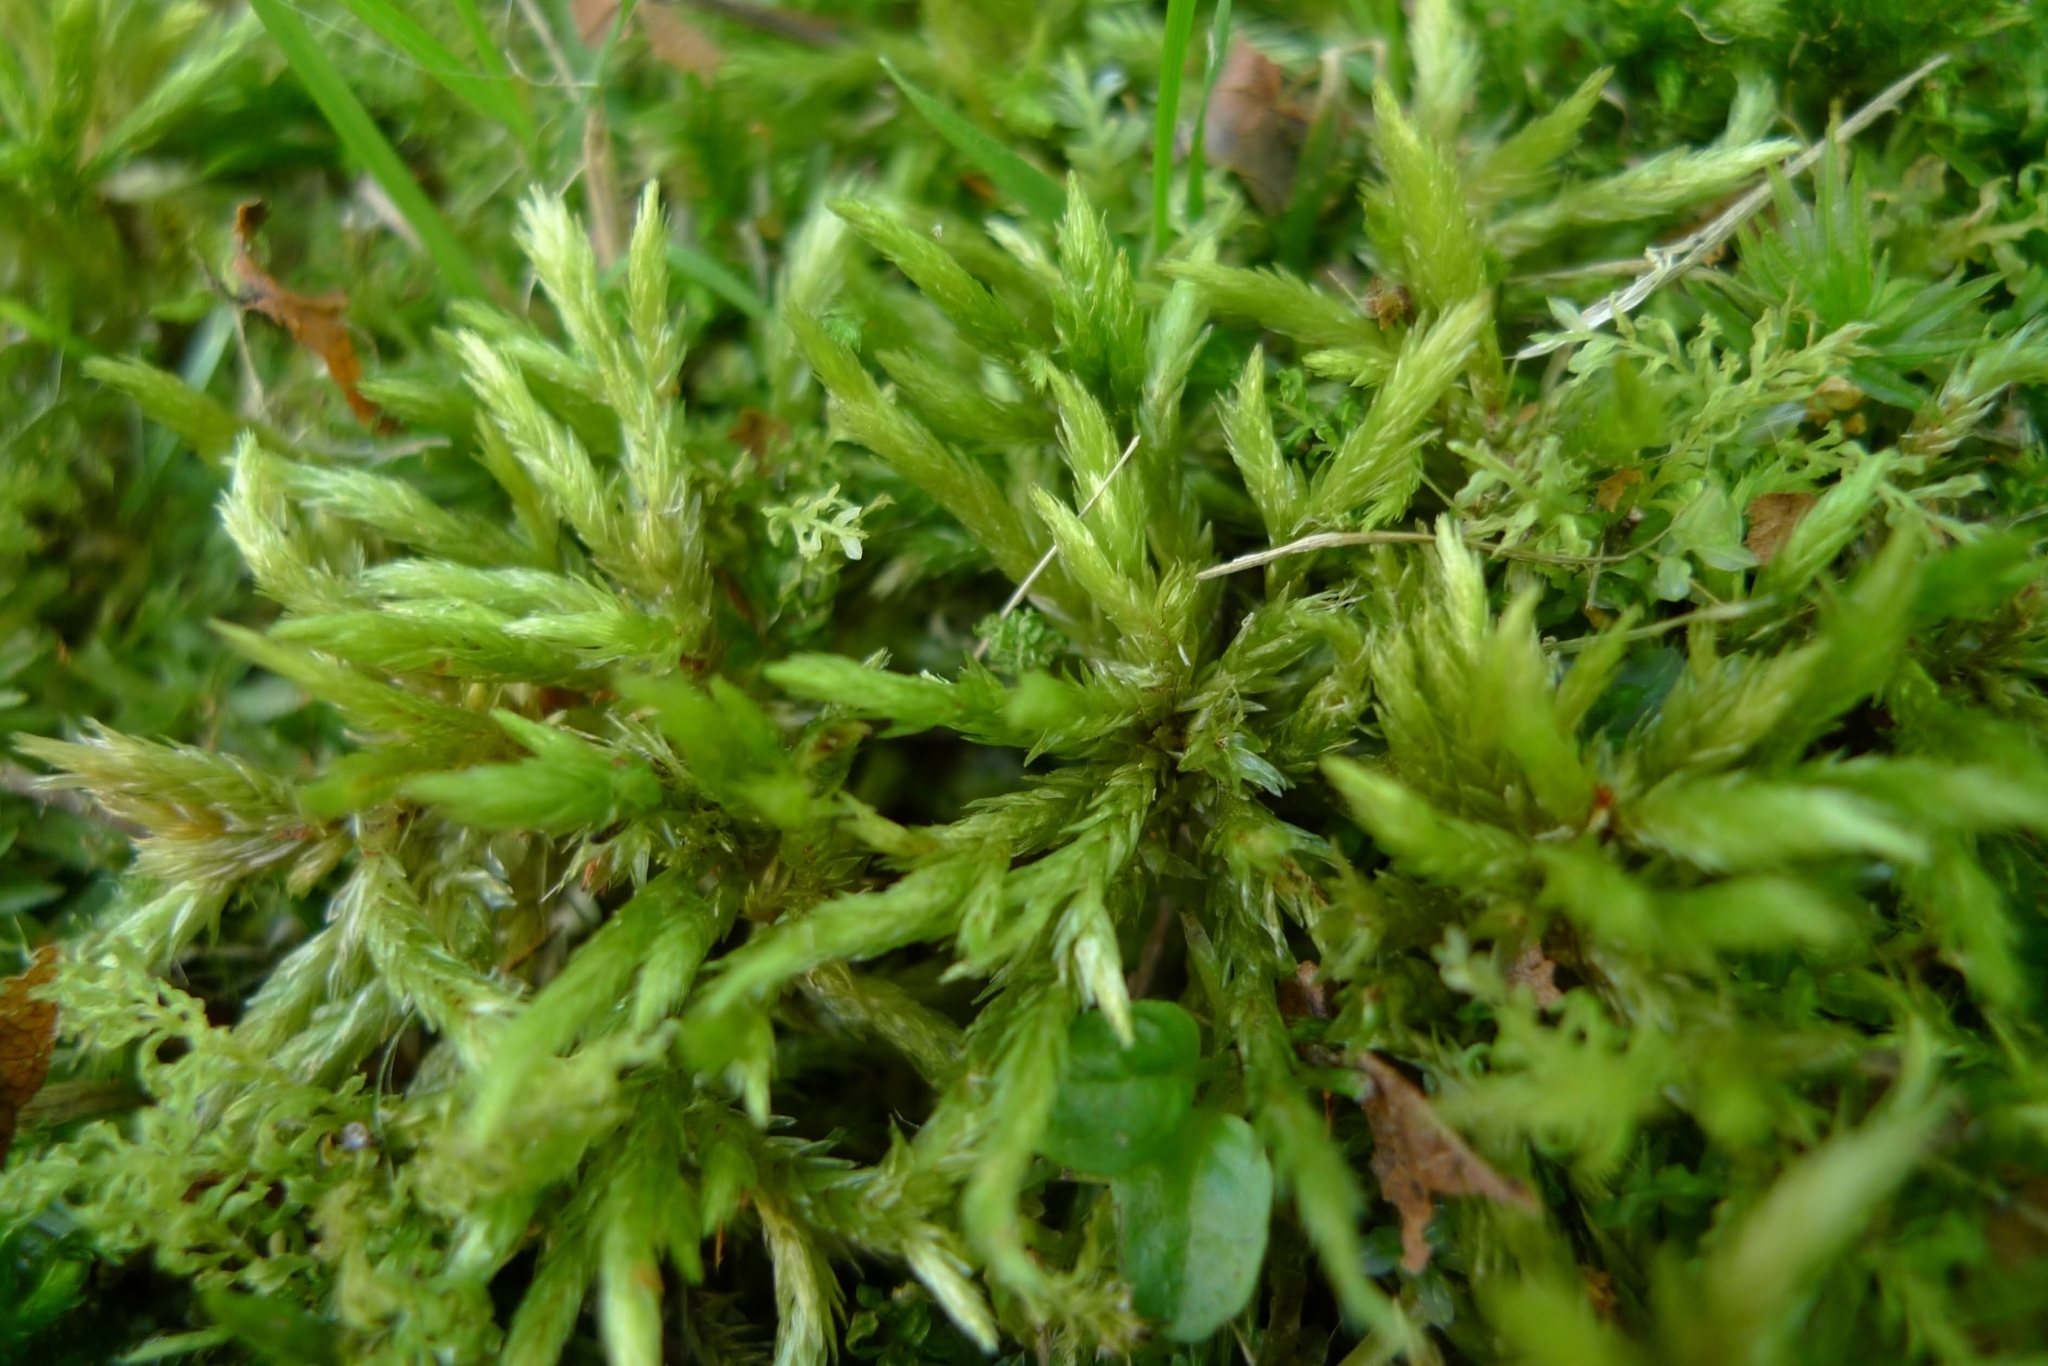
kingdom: Plantae
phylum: Bryophyta
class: Bryopsida
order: Hypnales
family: Climaciaceae
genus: Climacium
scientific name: Climacium dendroides
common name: Northern tree moss
